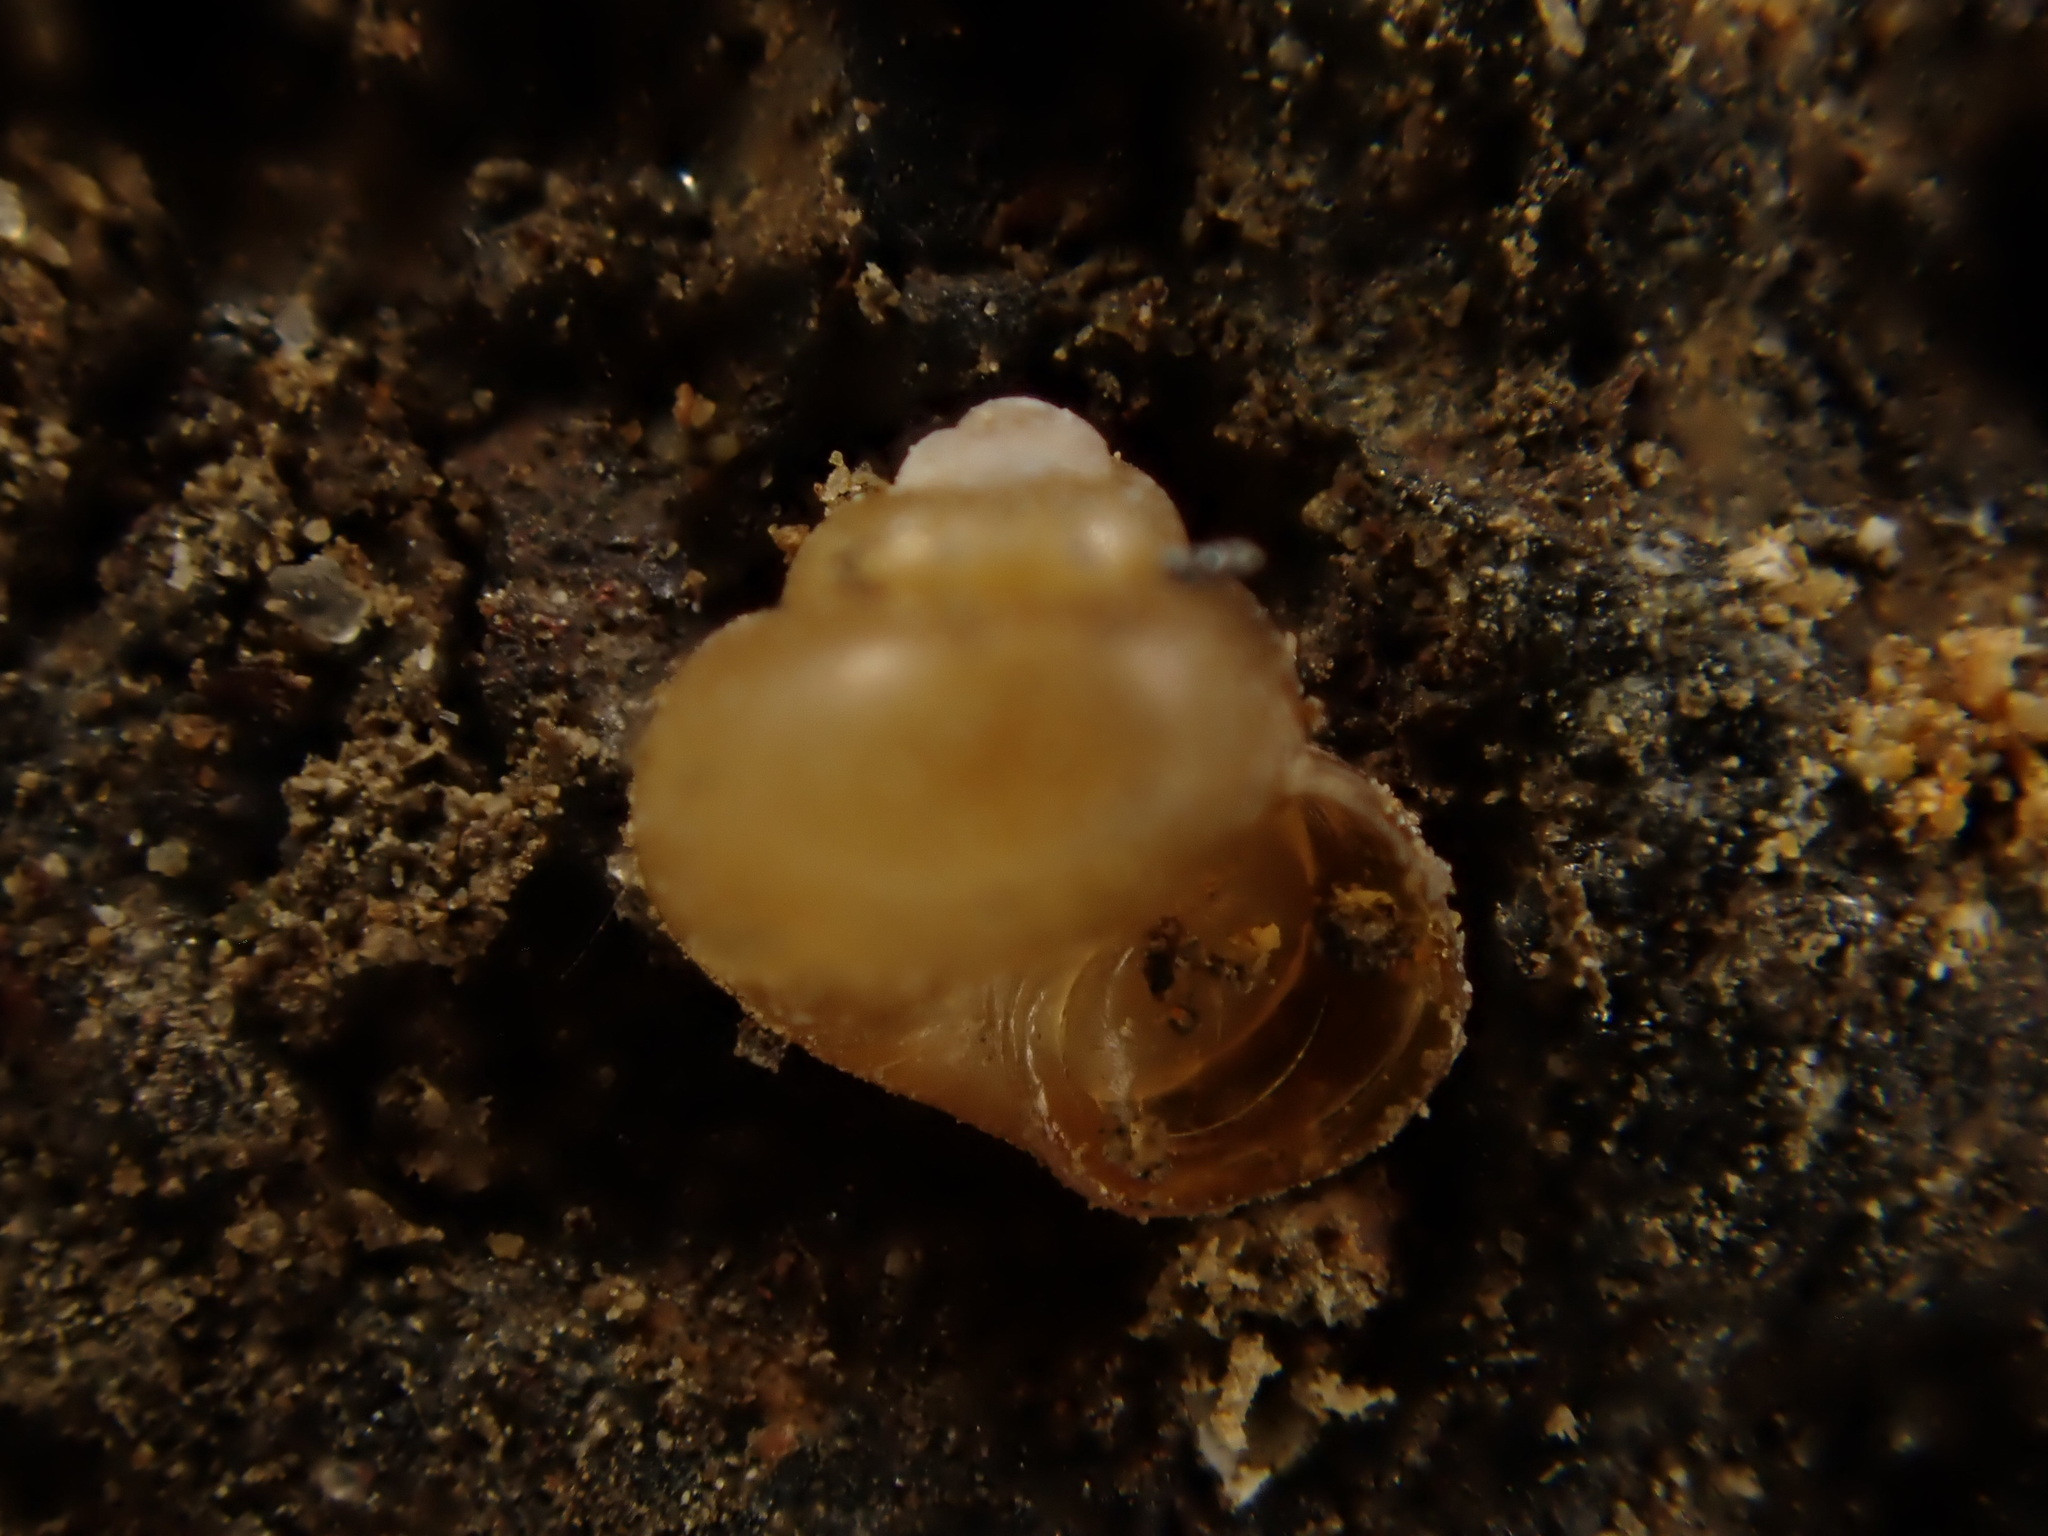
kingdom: Animalia
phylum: Mollusca
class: Gastropoda
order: Littorinimorpha
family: Assimineidae
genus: Suterilla
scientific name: Suterilla neozelanica
